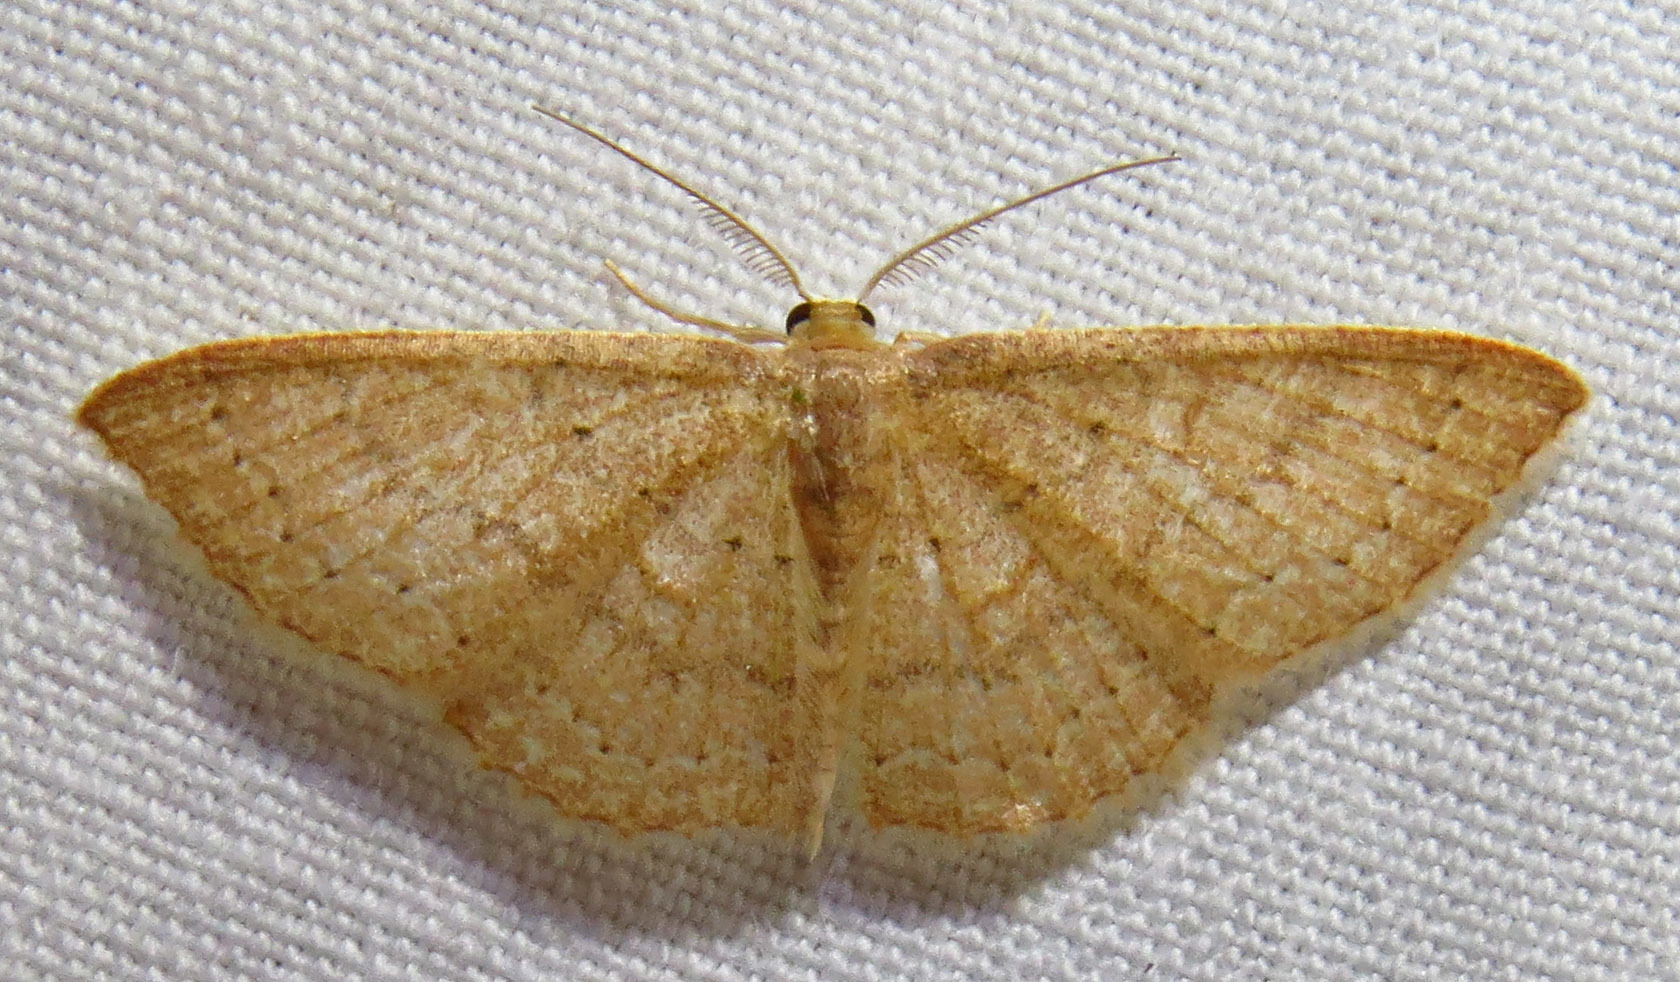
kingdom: Animalia
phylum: Arthropoda
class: Insecta
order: Lepidoptera
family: Geometridae
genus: Pleuroprucha
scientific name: Pleuroprucha insulsaria
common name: Common tan wave
